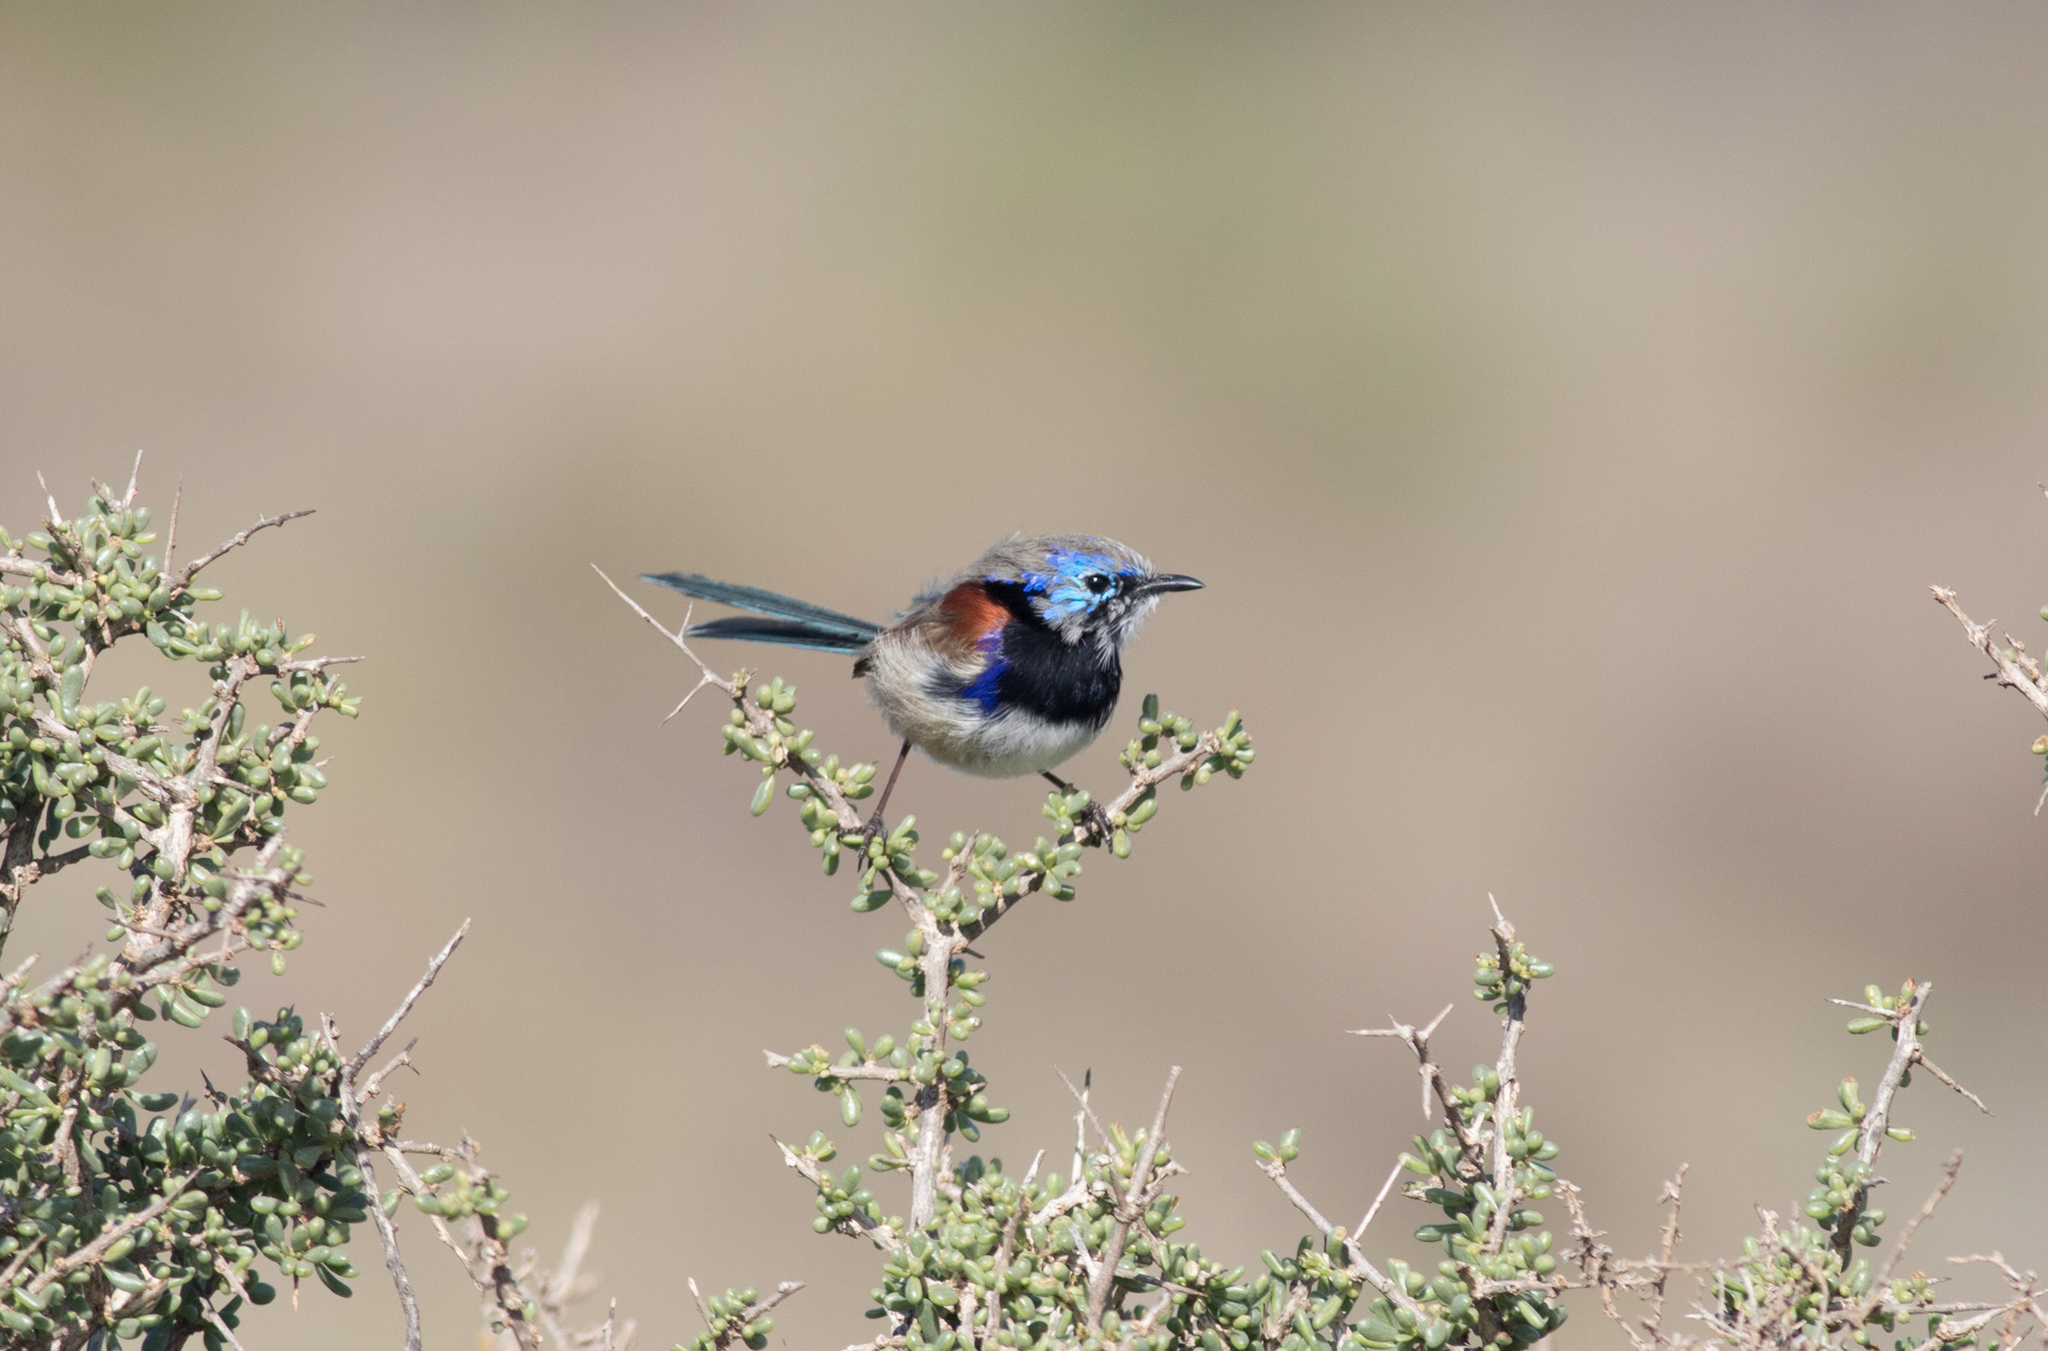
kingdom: Animalia
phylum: Chordata
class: Aves
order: Passeriformes
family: Maluridae
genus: Malurus
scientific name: Malurus assimilis
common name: Purple-backed fairywren
